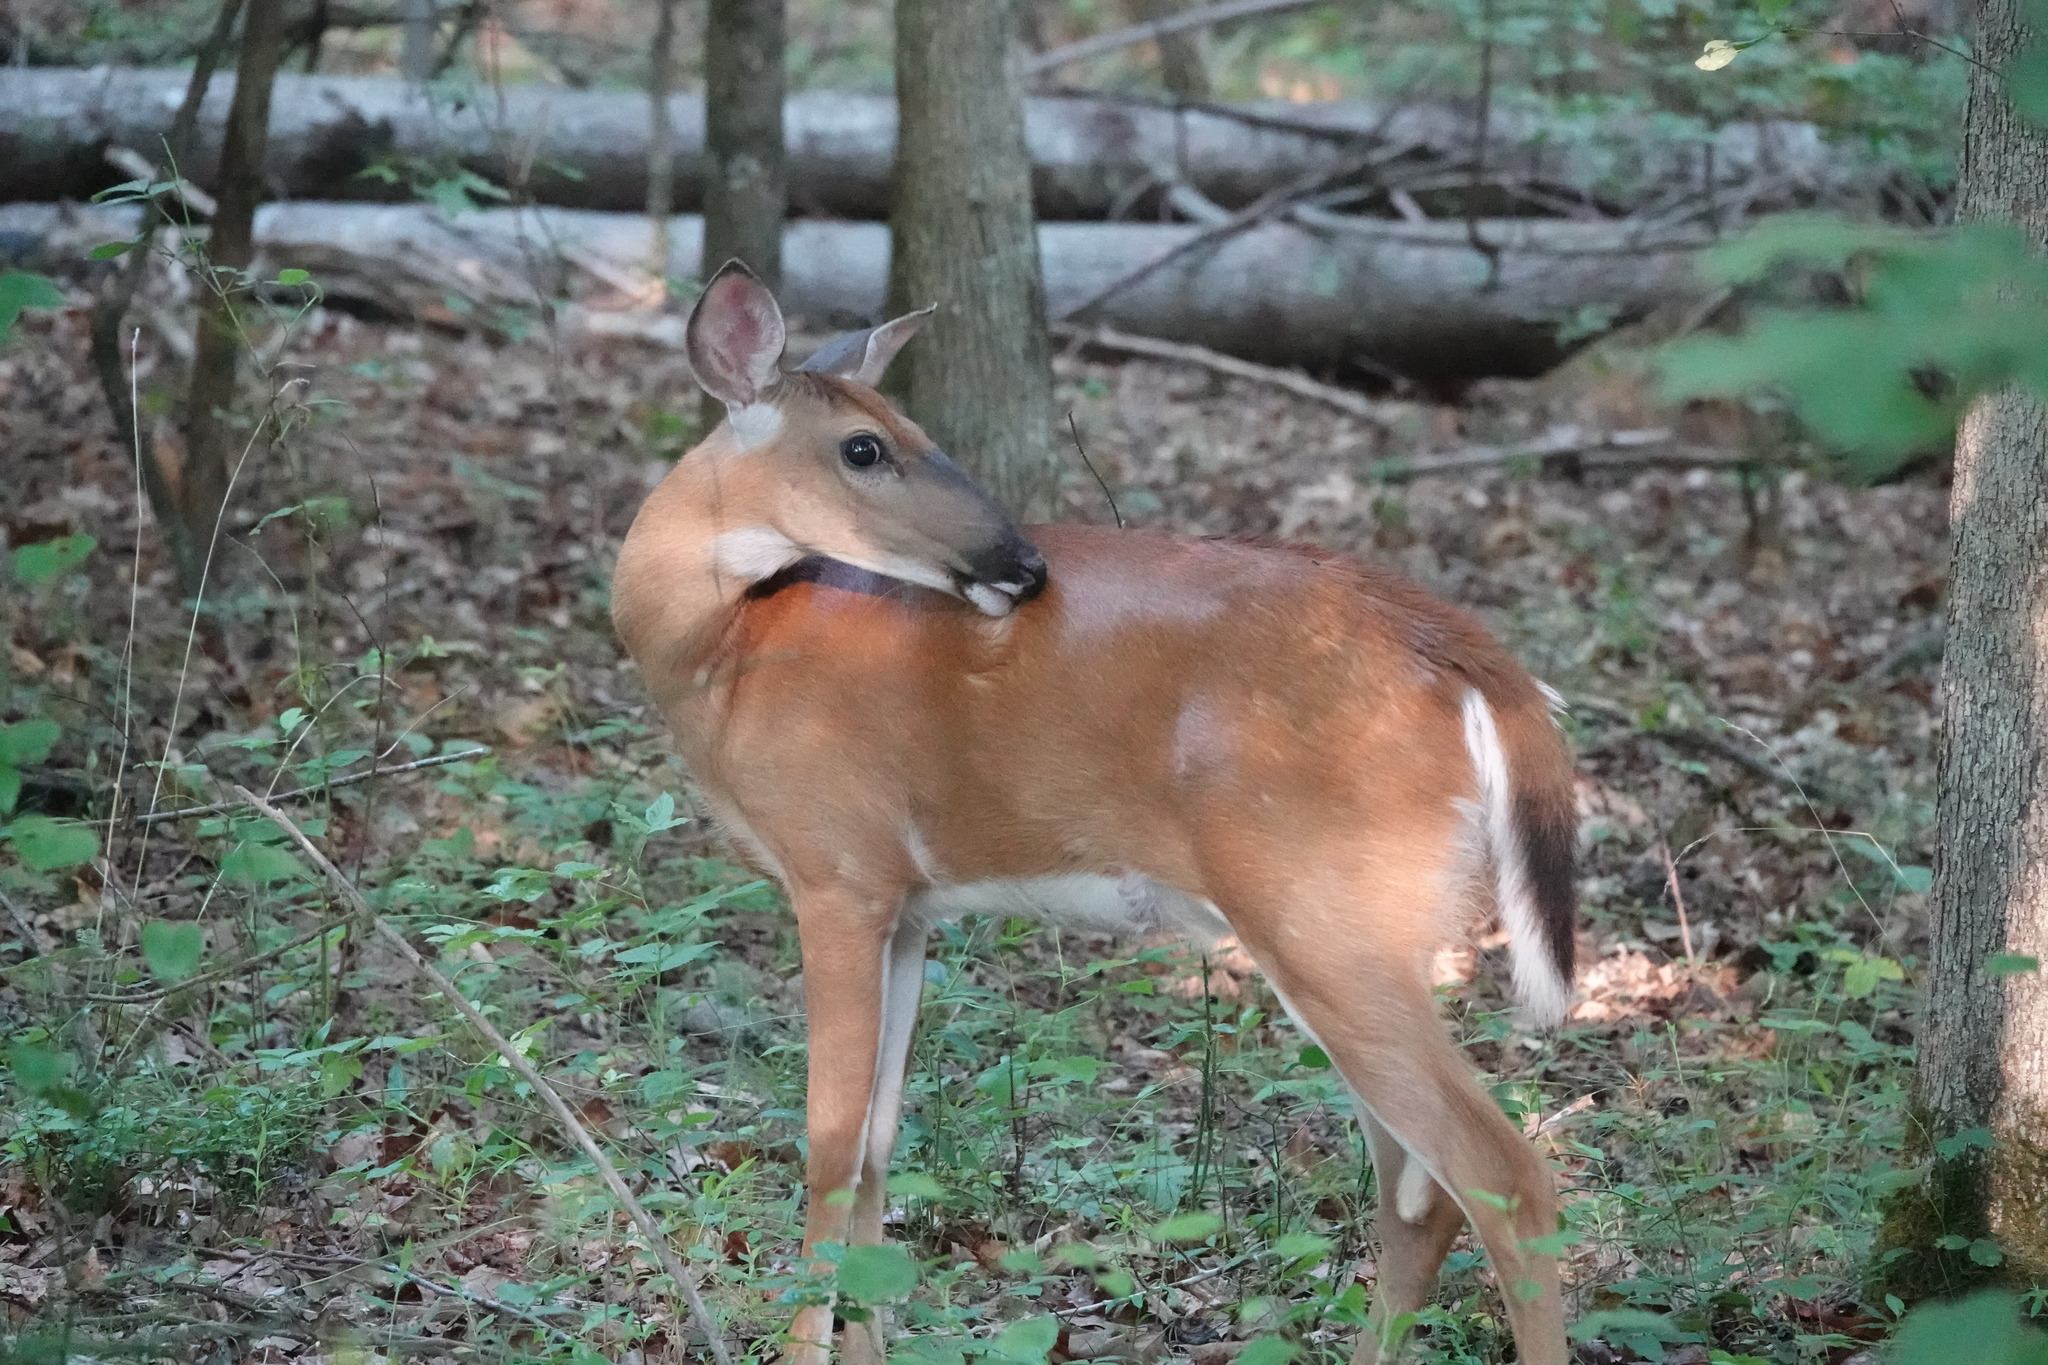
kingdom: Animalia
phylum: Chordata
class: Mammalia
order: Artiodactyla
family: Cervidae
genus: Odocoileus
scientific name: Odocoileus virginianus
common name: White-tailed deer
